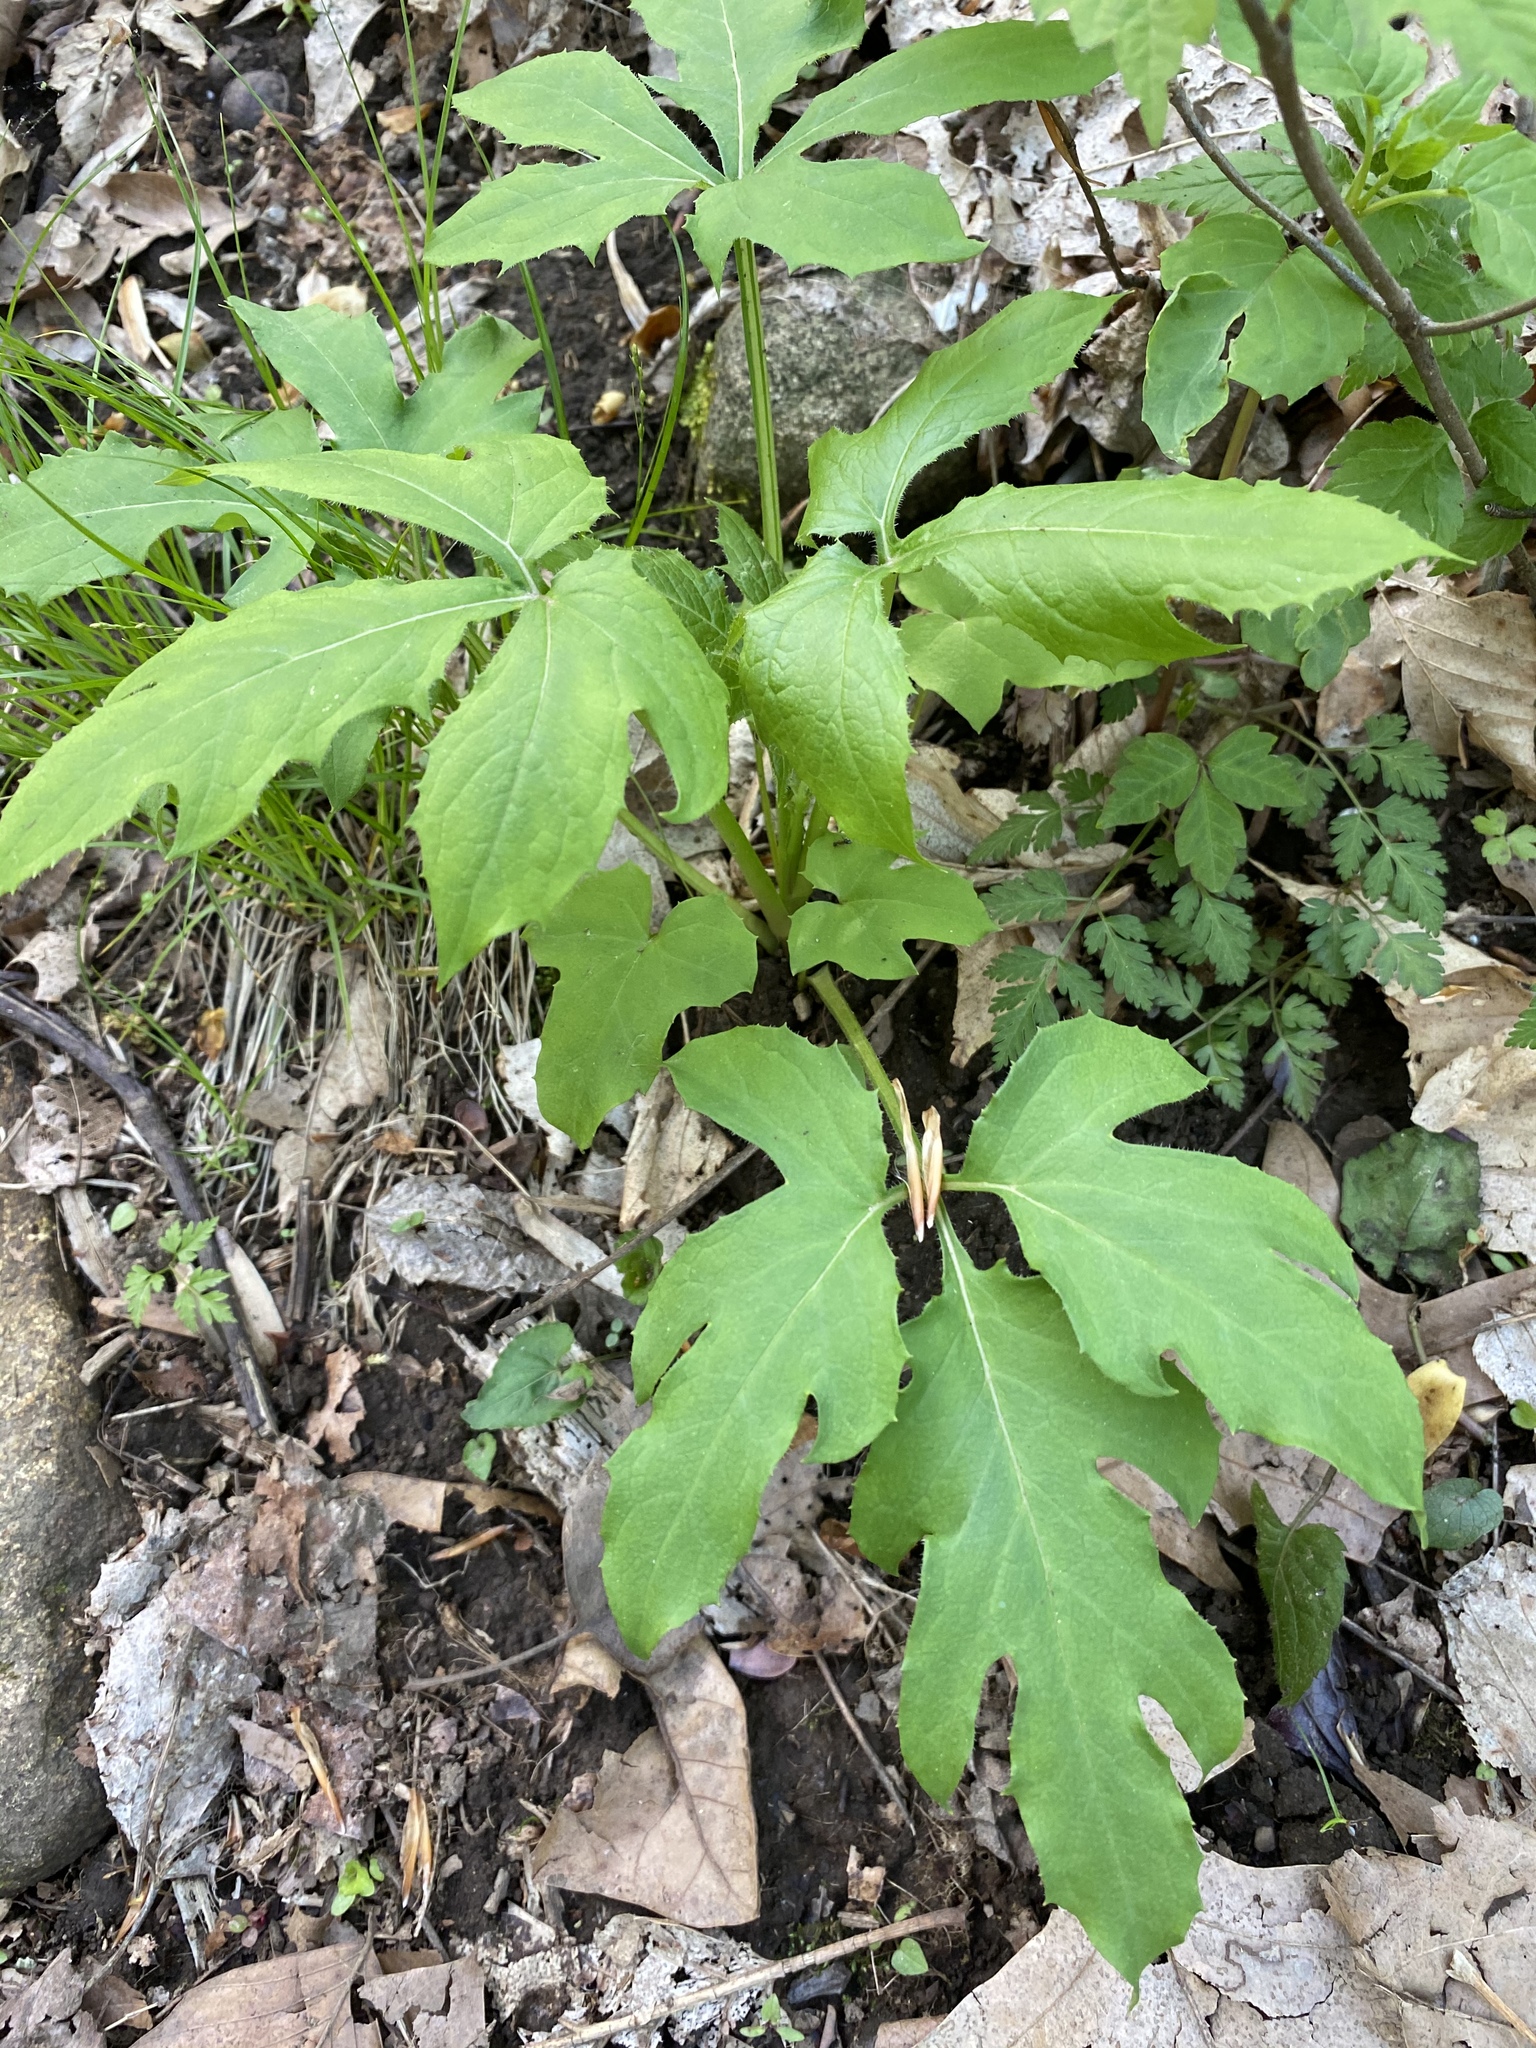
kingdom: Plantae
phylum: Tracheophyta
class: Magnoliopsida
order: Asterales
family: Asteraceae
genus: Nabalus
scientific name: Nabalus trifoliolatus
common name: Gall-of-the-earth
